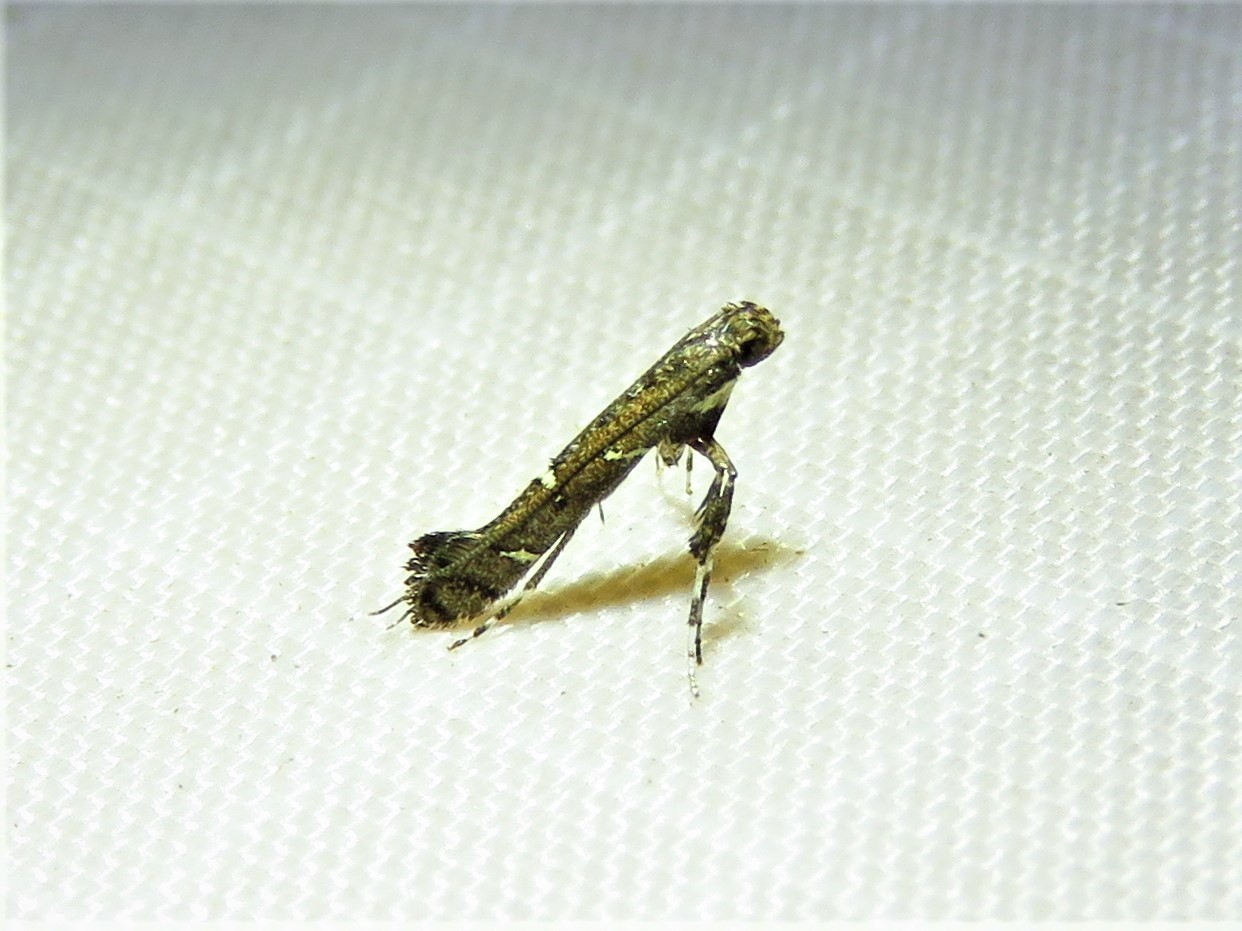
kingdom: Animalia
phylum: Arthropoda
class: Insecta
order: Lepidoptera
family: Gracillariidae
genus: Caloptilia
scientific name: Caloptilia triadicae
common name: Tallow leaf roller
